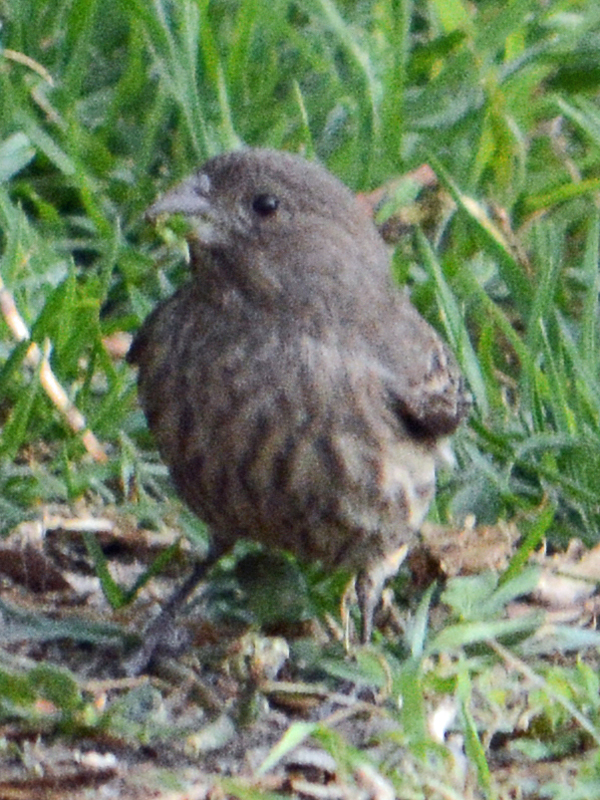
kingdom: Animalia
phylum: Chordata
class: Aves
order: Passeriformes
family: Fringillidae
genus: Haemorhous
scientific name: Haemorhous mexicanus
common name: House finch
